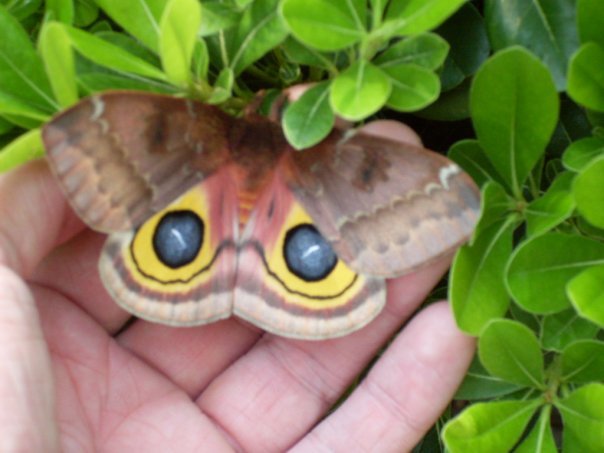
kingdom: Animalia
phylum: Arthropoda
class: Insecta
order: Lepidoptera
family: Saturniidae
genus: Automeris
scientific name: Automeris io
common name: Io moth
